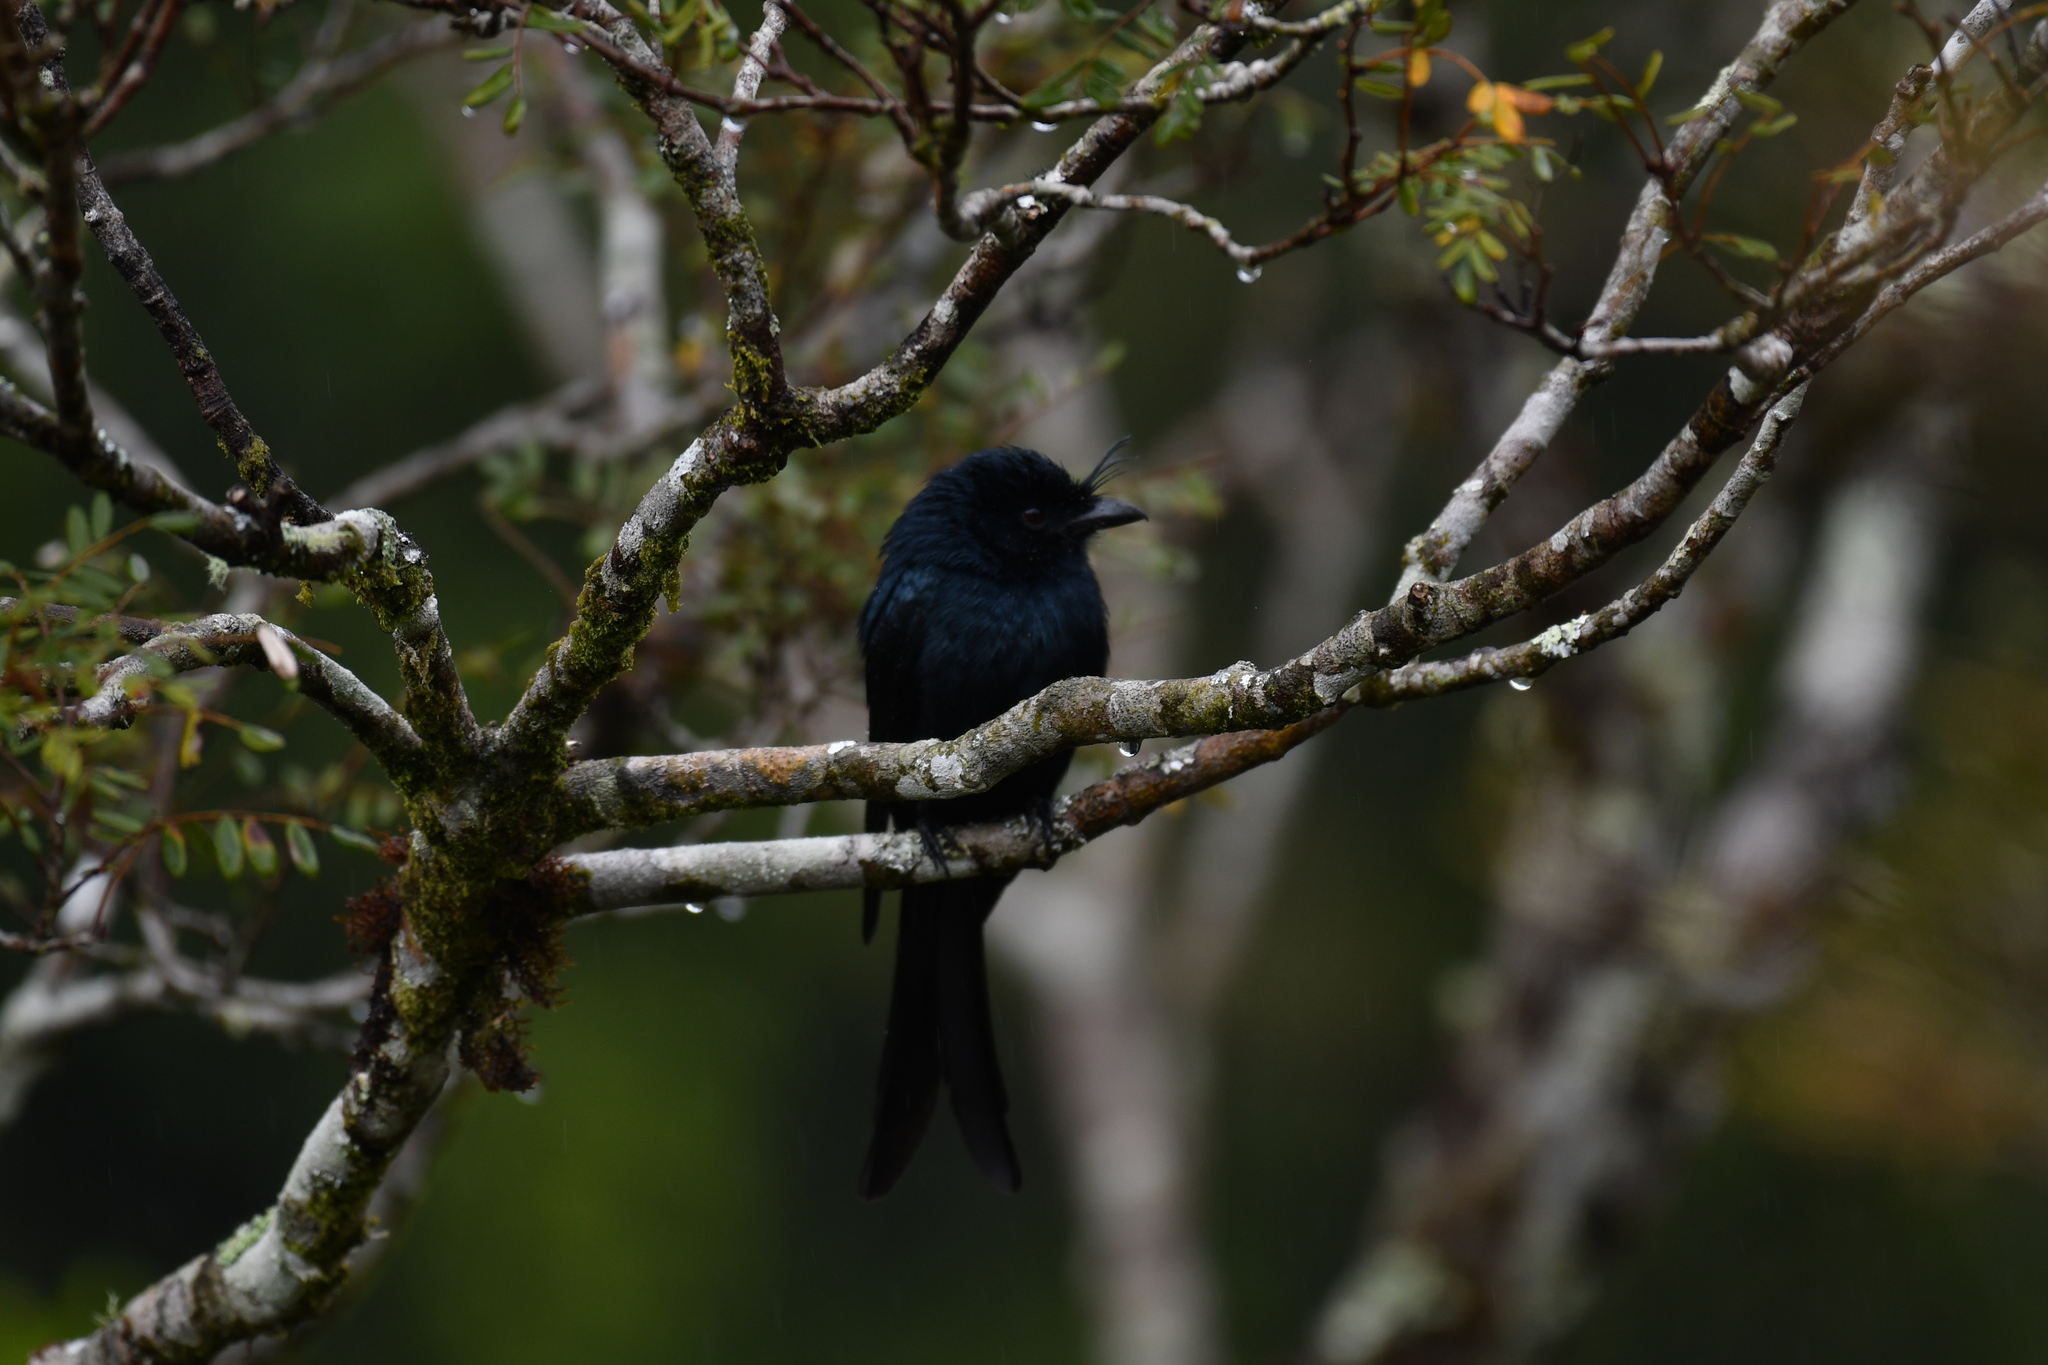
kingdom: Animalia
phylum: Chordata
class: Aves
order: Passeriformes
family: Dicruridae
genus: Dicrurus
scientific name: Dicrurus forficatus
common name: Crested drongo
